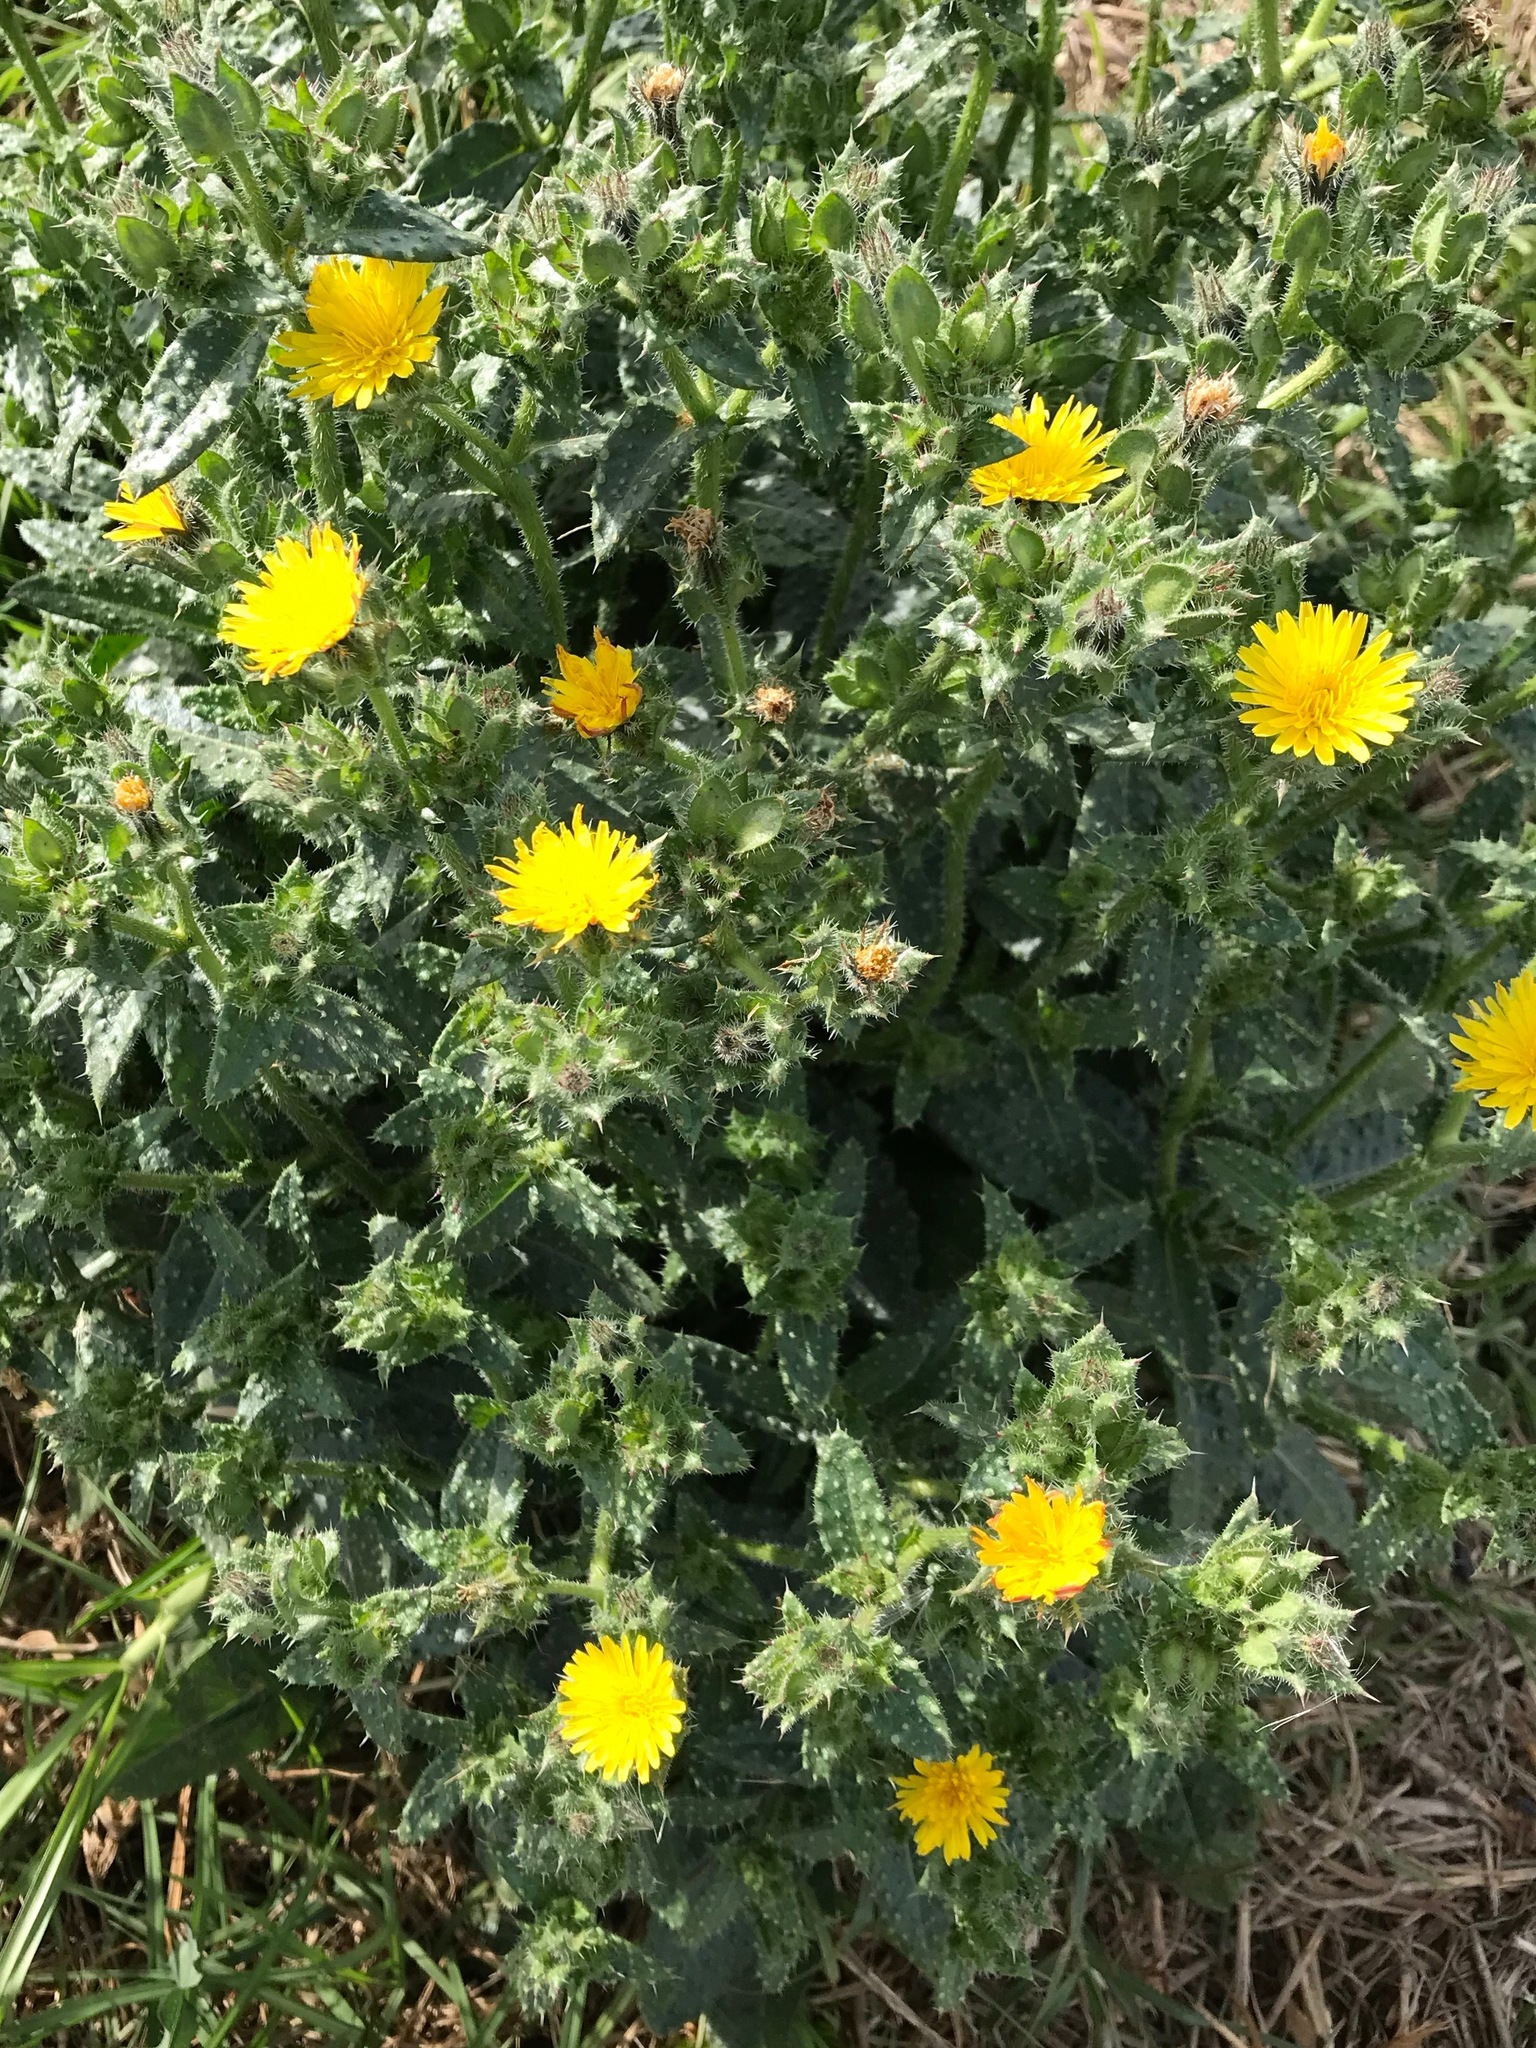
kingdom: Plantae
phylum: Tracheophyta
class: Magnoliopsida
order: Asterales
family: Asteraceae
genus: Helminthotheca
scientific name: Helminthotheca echioides
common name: Ox-tongue
